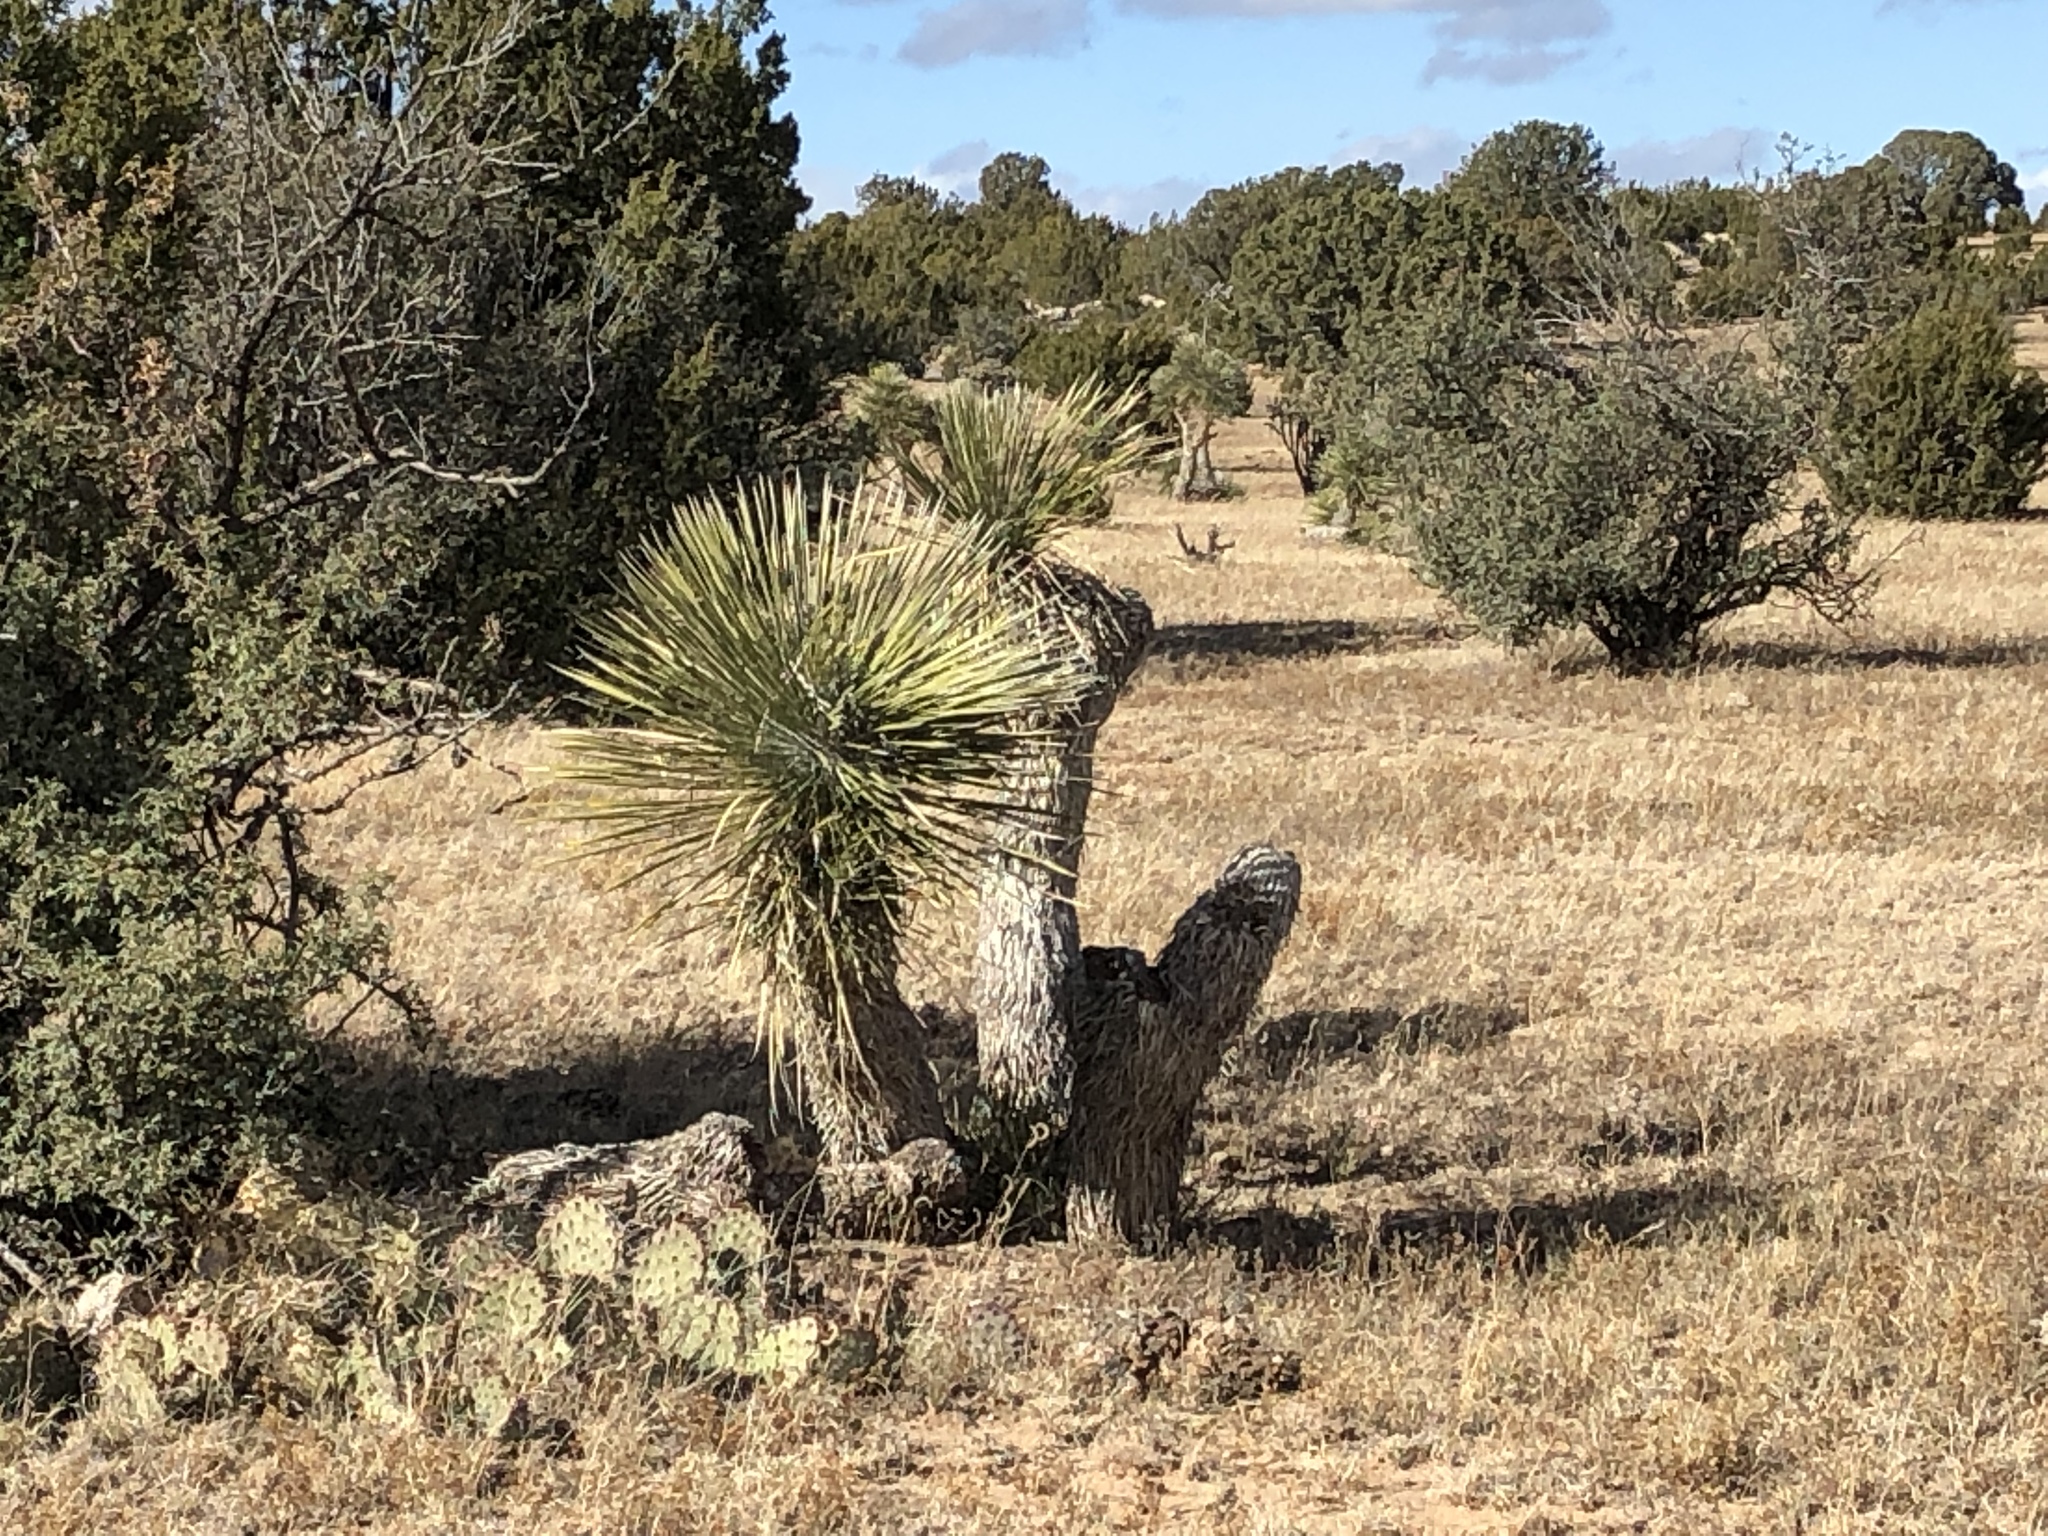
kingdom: Plantae
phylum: Tracheophyta
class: Liliopsida
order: Asparagales
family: Asparagaceae
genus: Yucca
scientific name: Yucca elata
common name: Palmella
